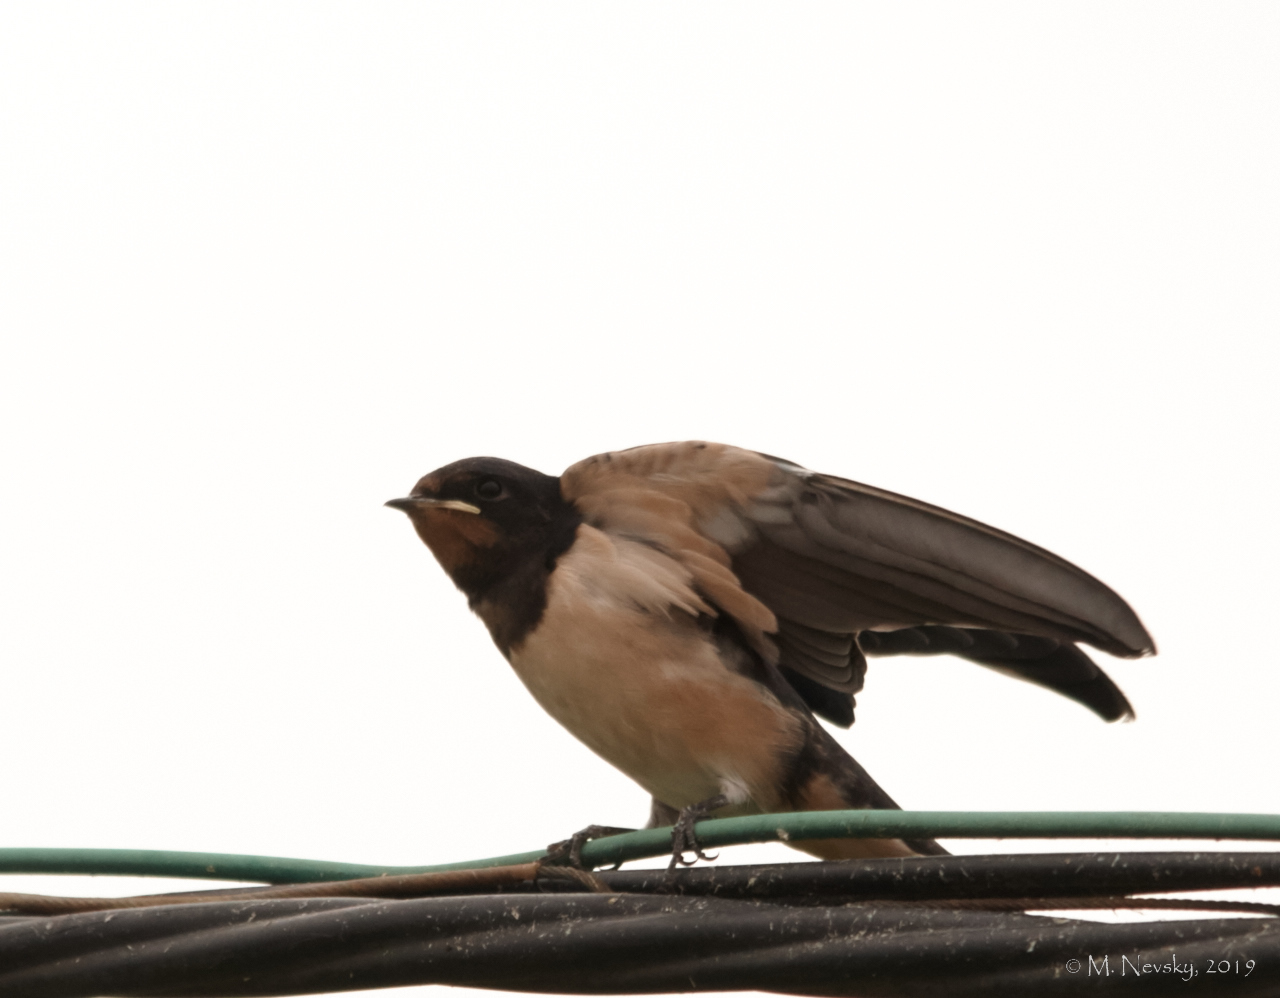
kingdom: Animalia
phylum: Chordata
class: Aves
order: Passeriformes
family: Hirundinidae
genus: Hirundo
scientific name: Hirundo rustica
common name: Barn swallow
